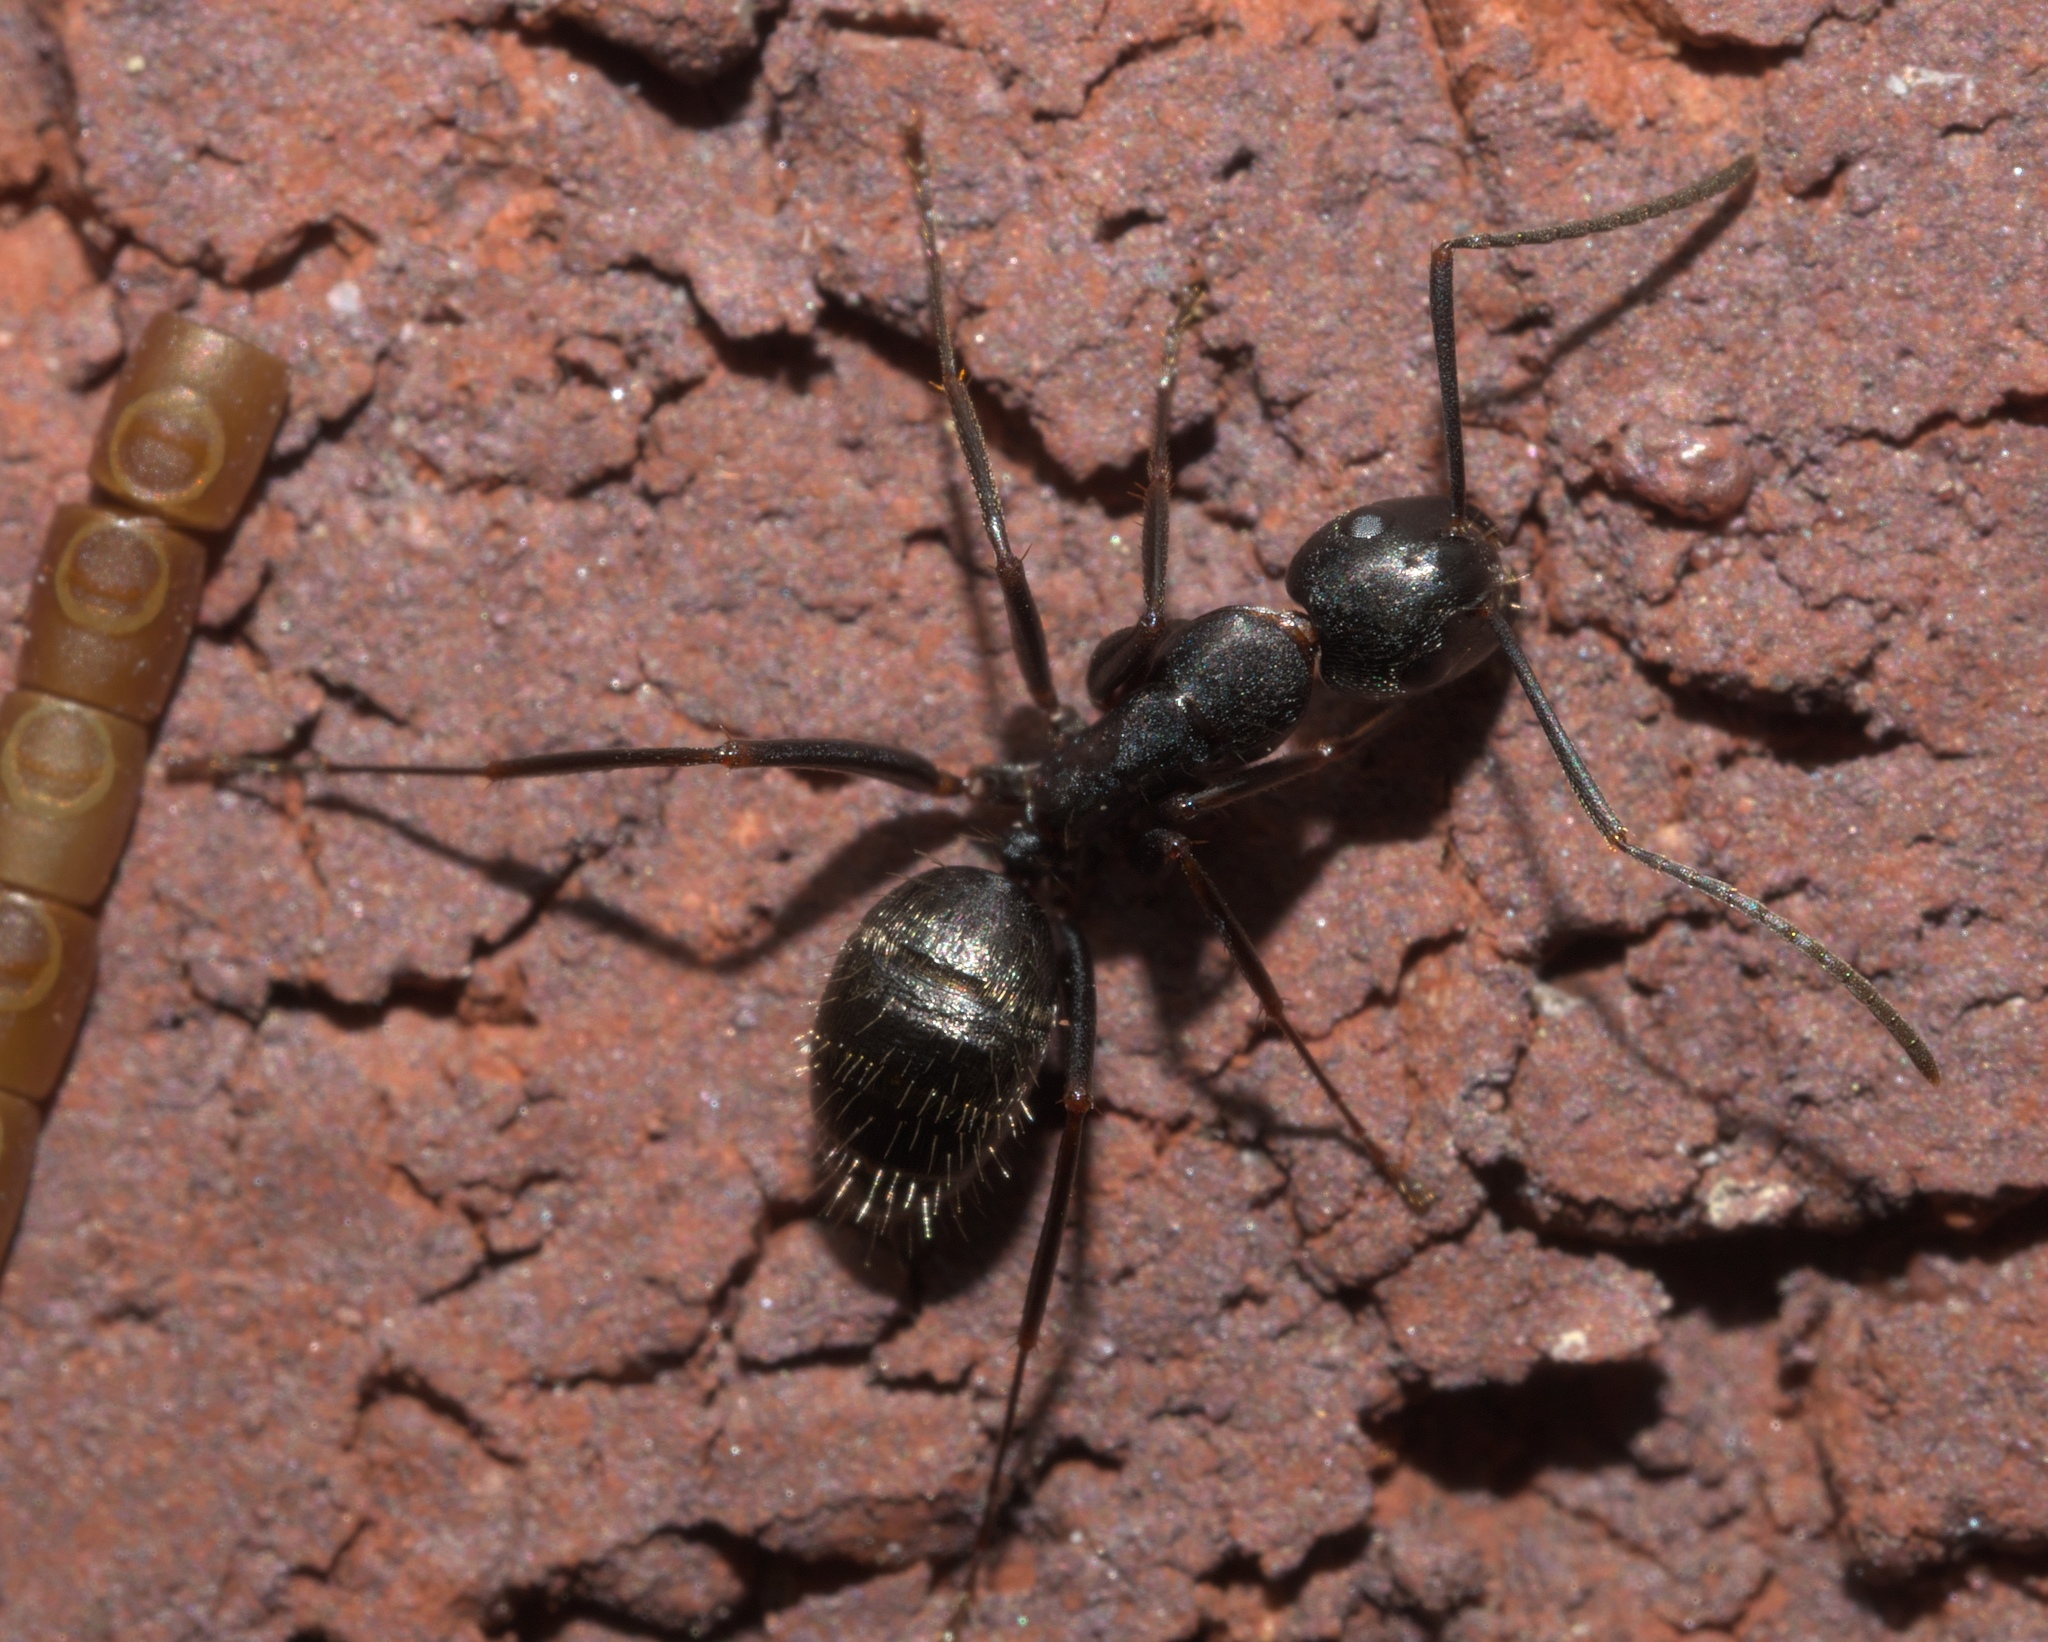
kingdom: Animalia
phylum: Arthropoda
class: Insecta
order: Hymenoptera
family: Formicidae
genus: Camponotus
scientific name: Camponotus pennsylvanicus
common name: Black carpenter ant
